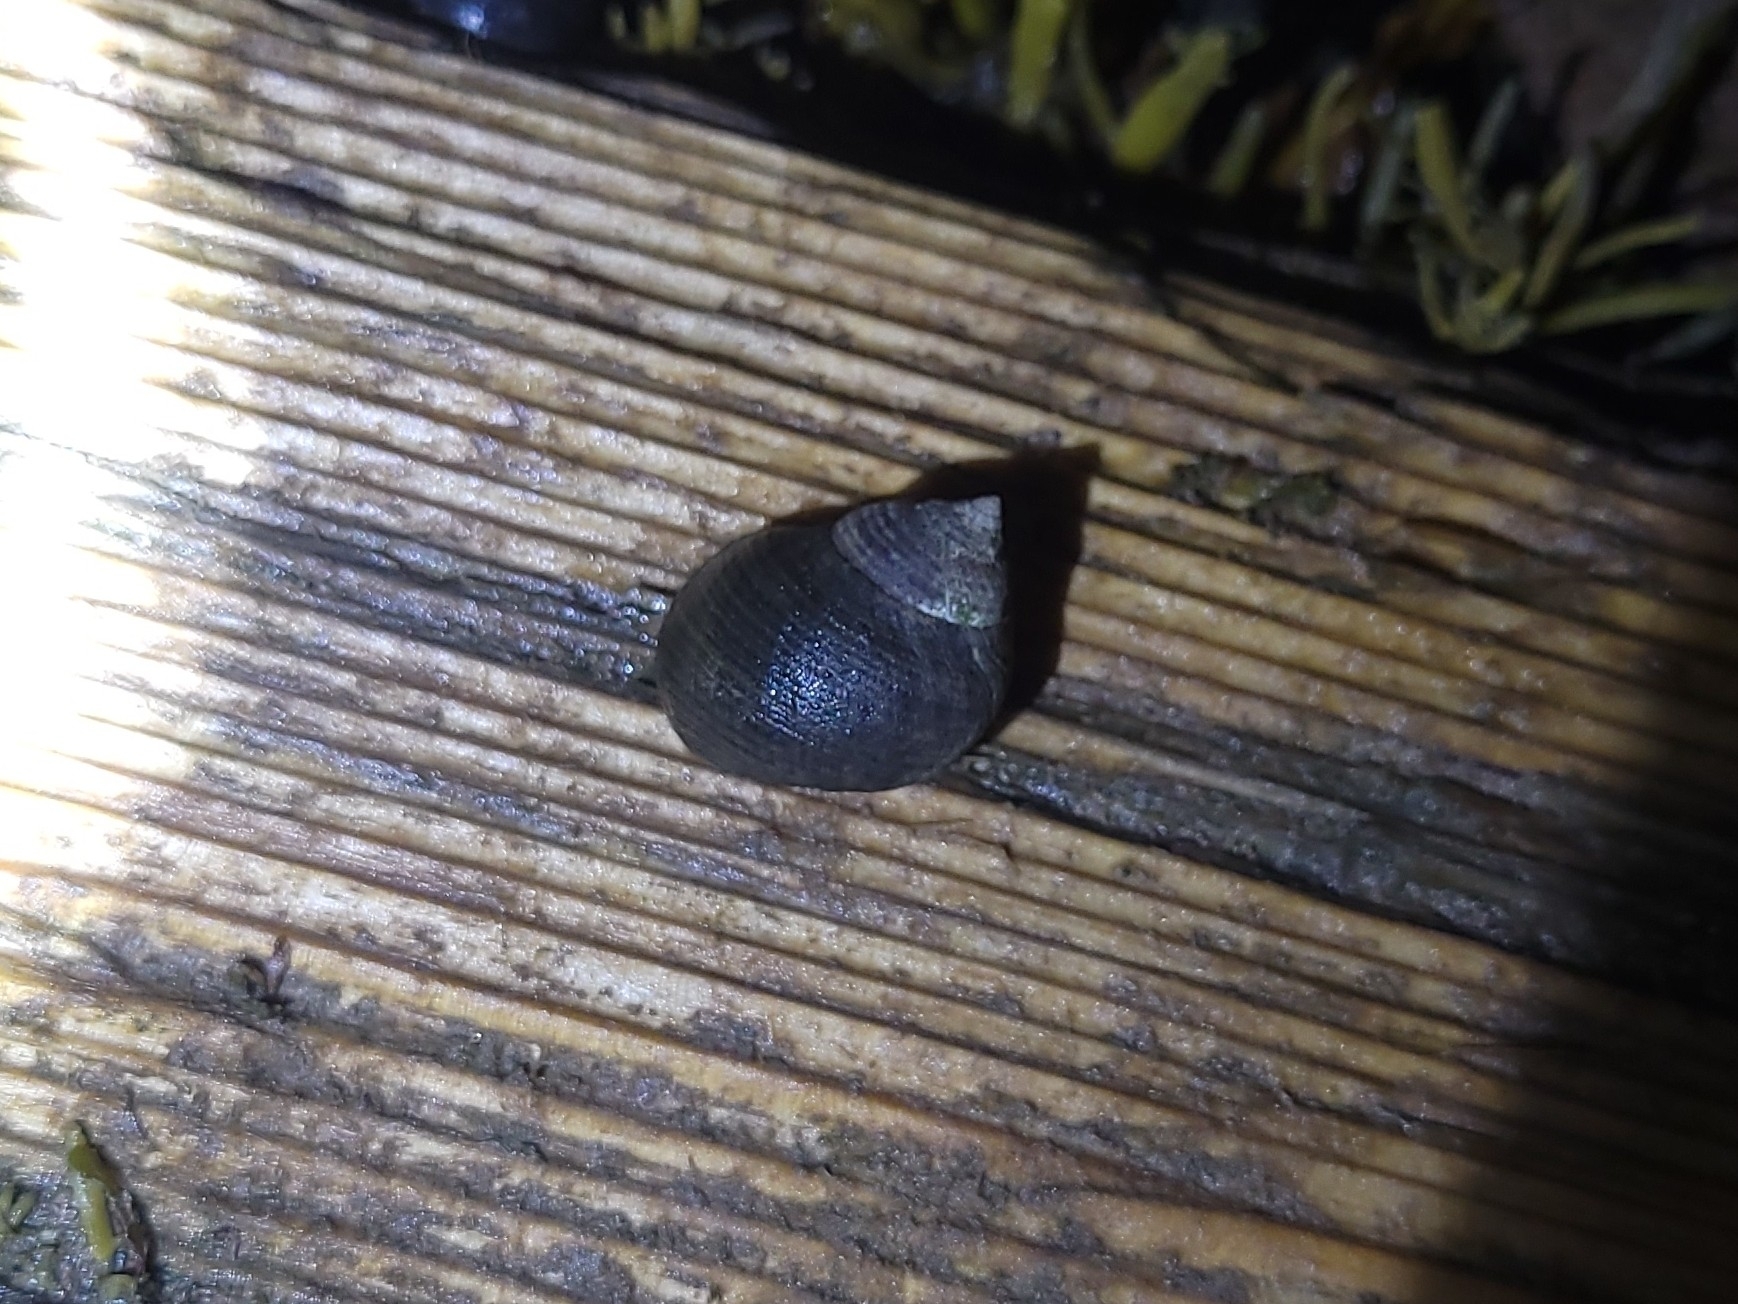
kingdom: Animalia
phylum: Mollusca
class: Gastropoda
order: Littorinimorpha
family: Littorinidae
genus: Littorina
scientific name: Littorina littorea
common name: Common periwinkle
